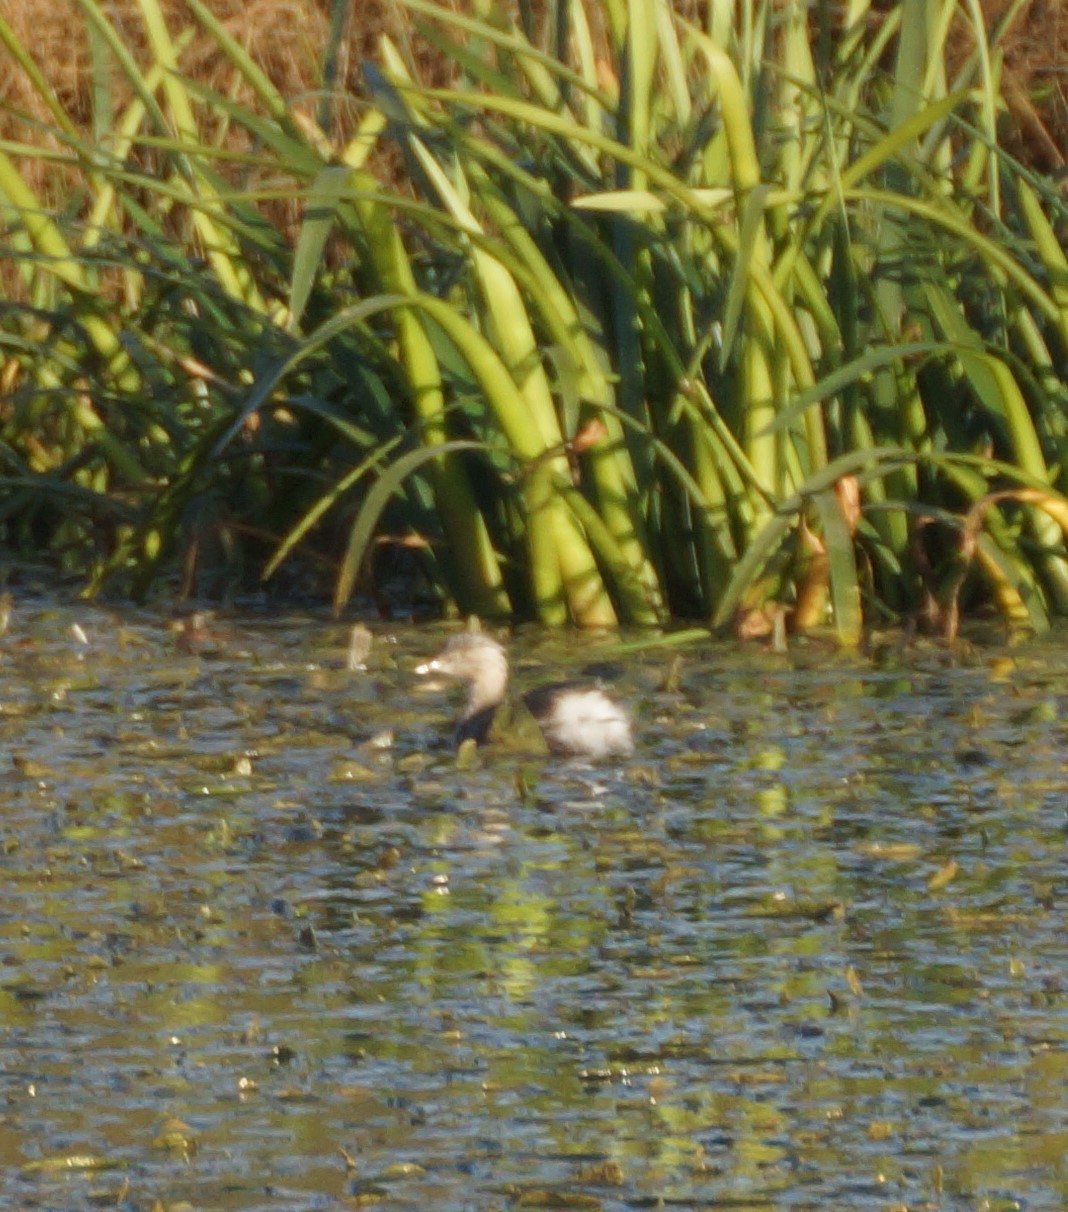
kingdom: Animalia
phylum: Chordata
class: Aves
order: Podicipediformes
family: Podicipedidae
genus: Tachybaptus
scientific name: Tachybaptus novaehollandiae
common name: Australasian grebe
